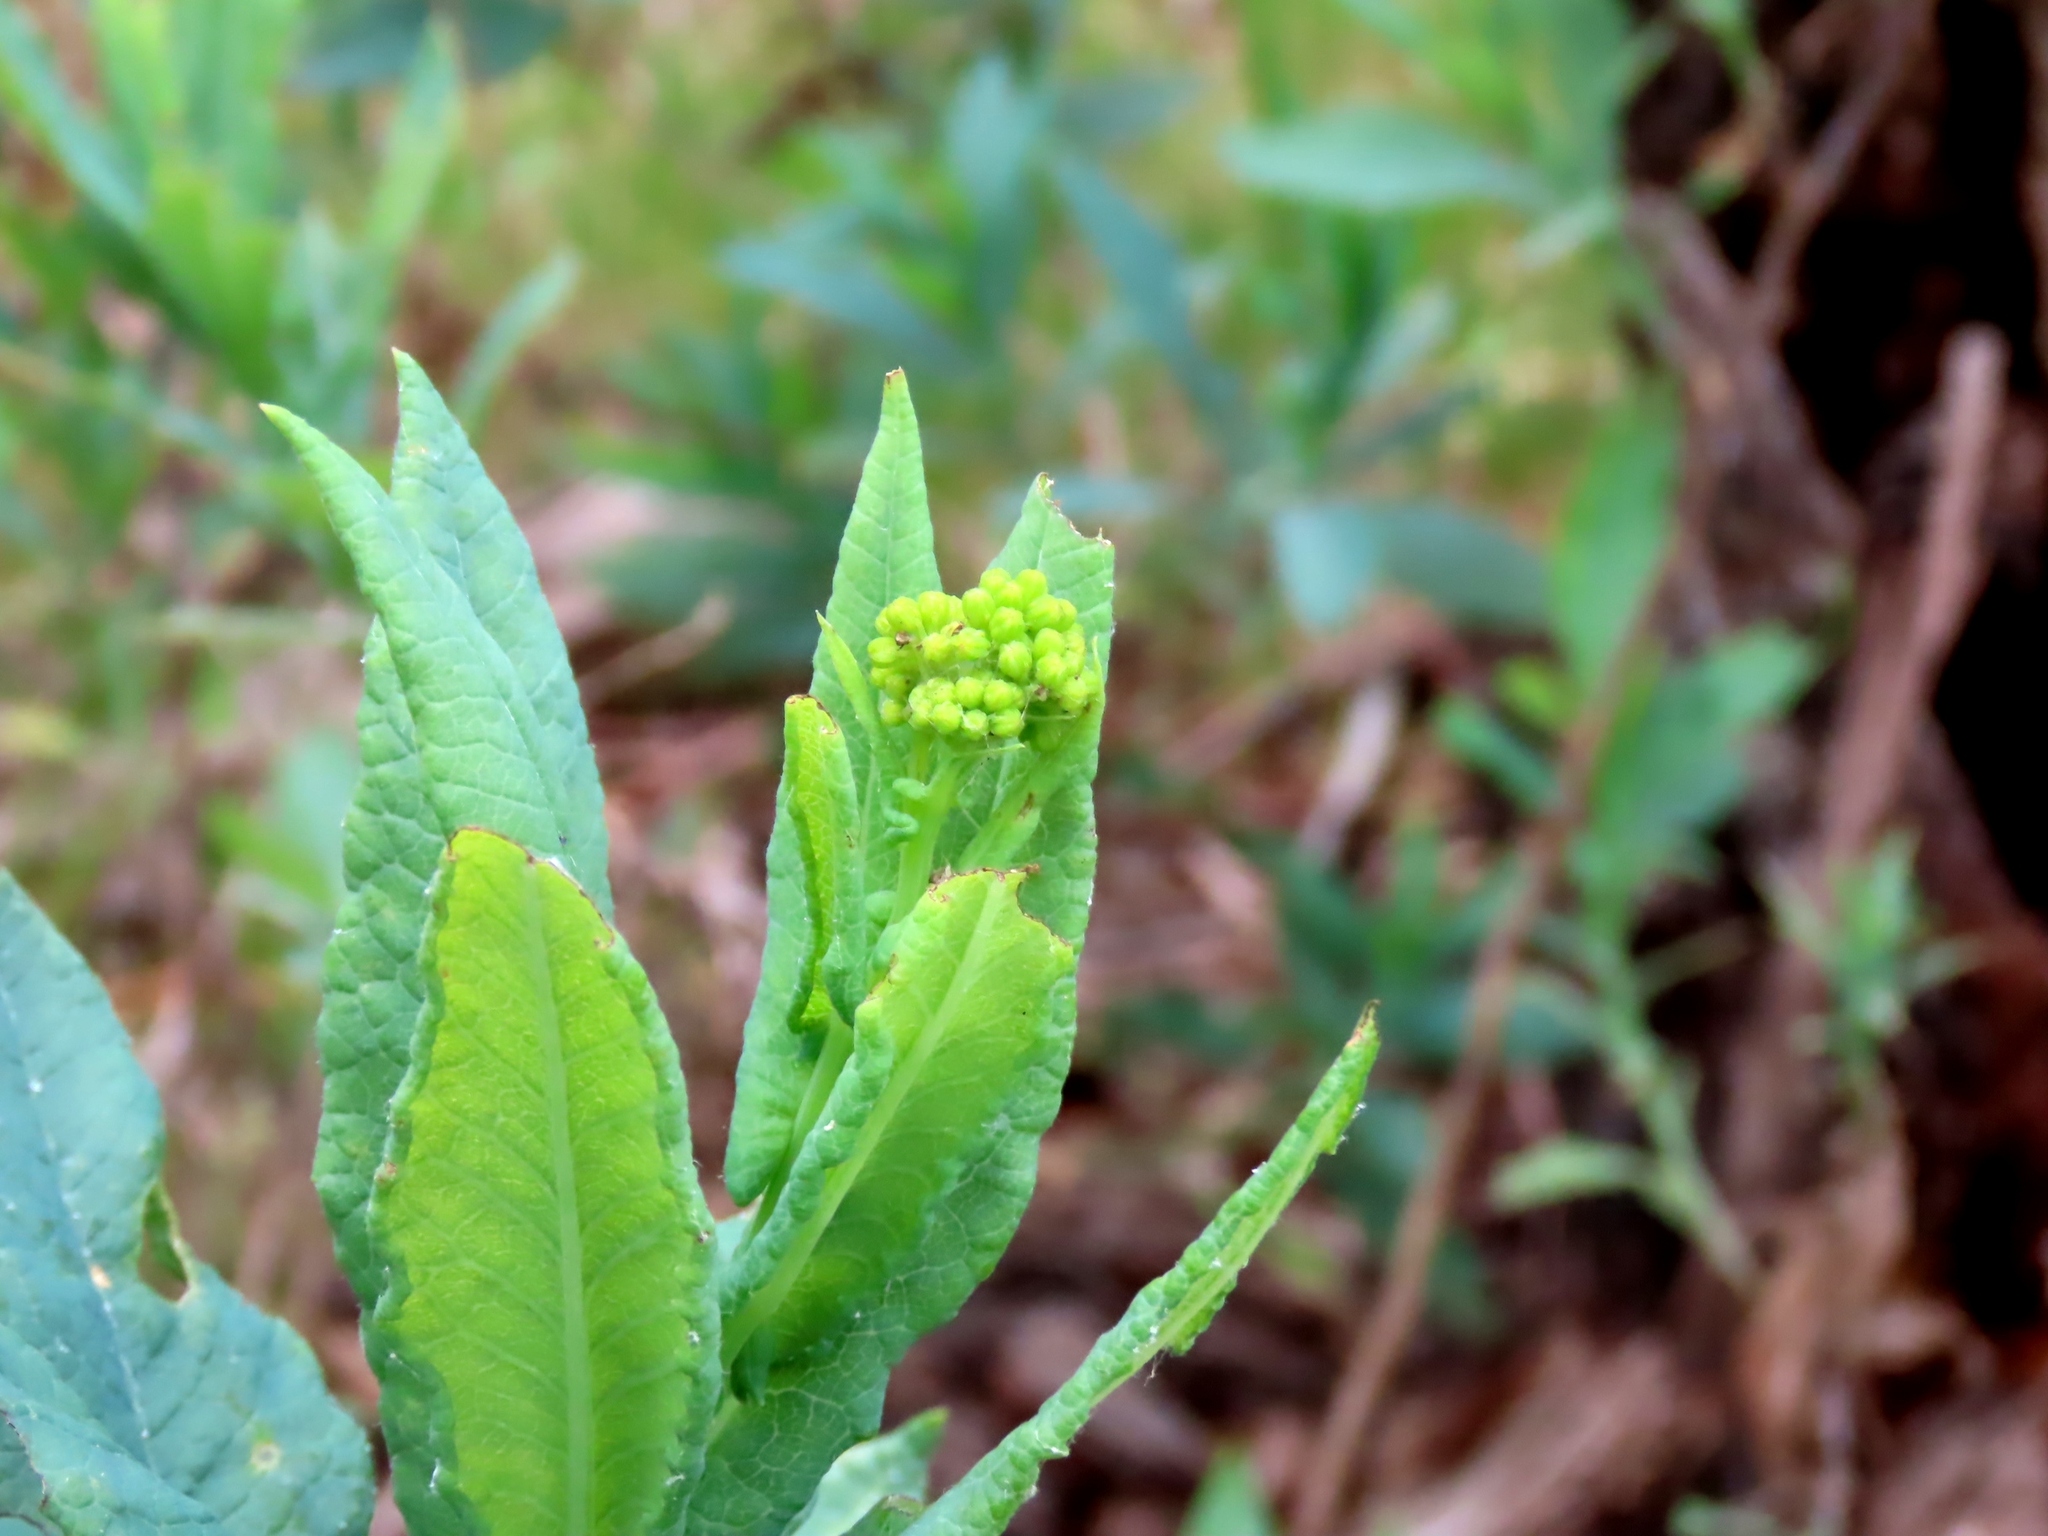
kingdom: Plantae
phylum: Tracheophyta
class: Magnoliopsida
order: Asterales
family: Asteraceae
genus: Senecio
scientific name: Senecio odoratus
